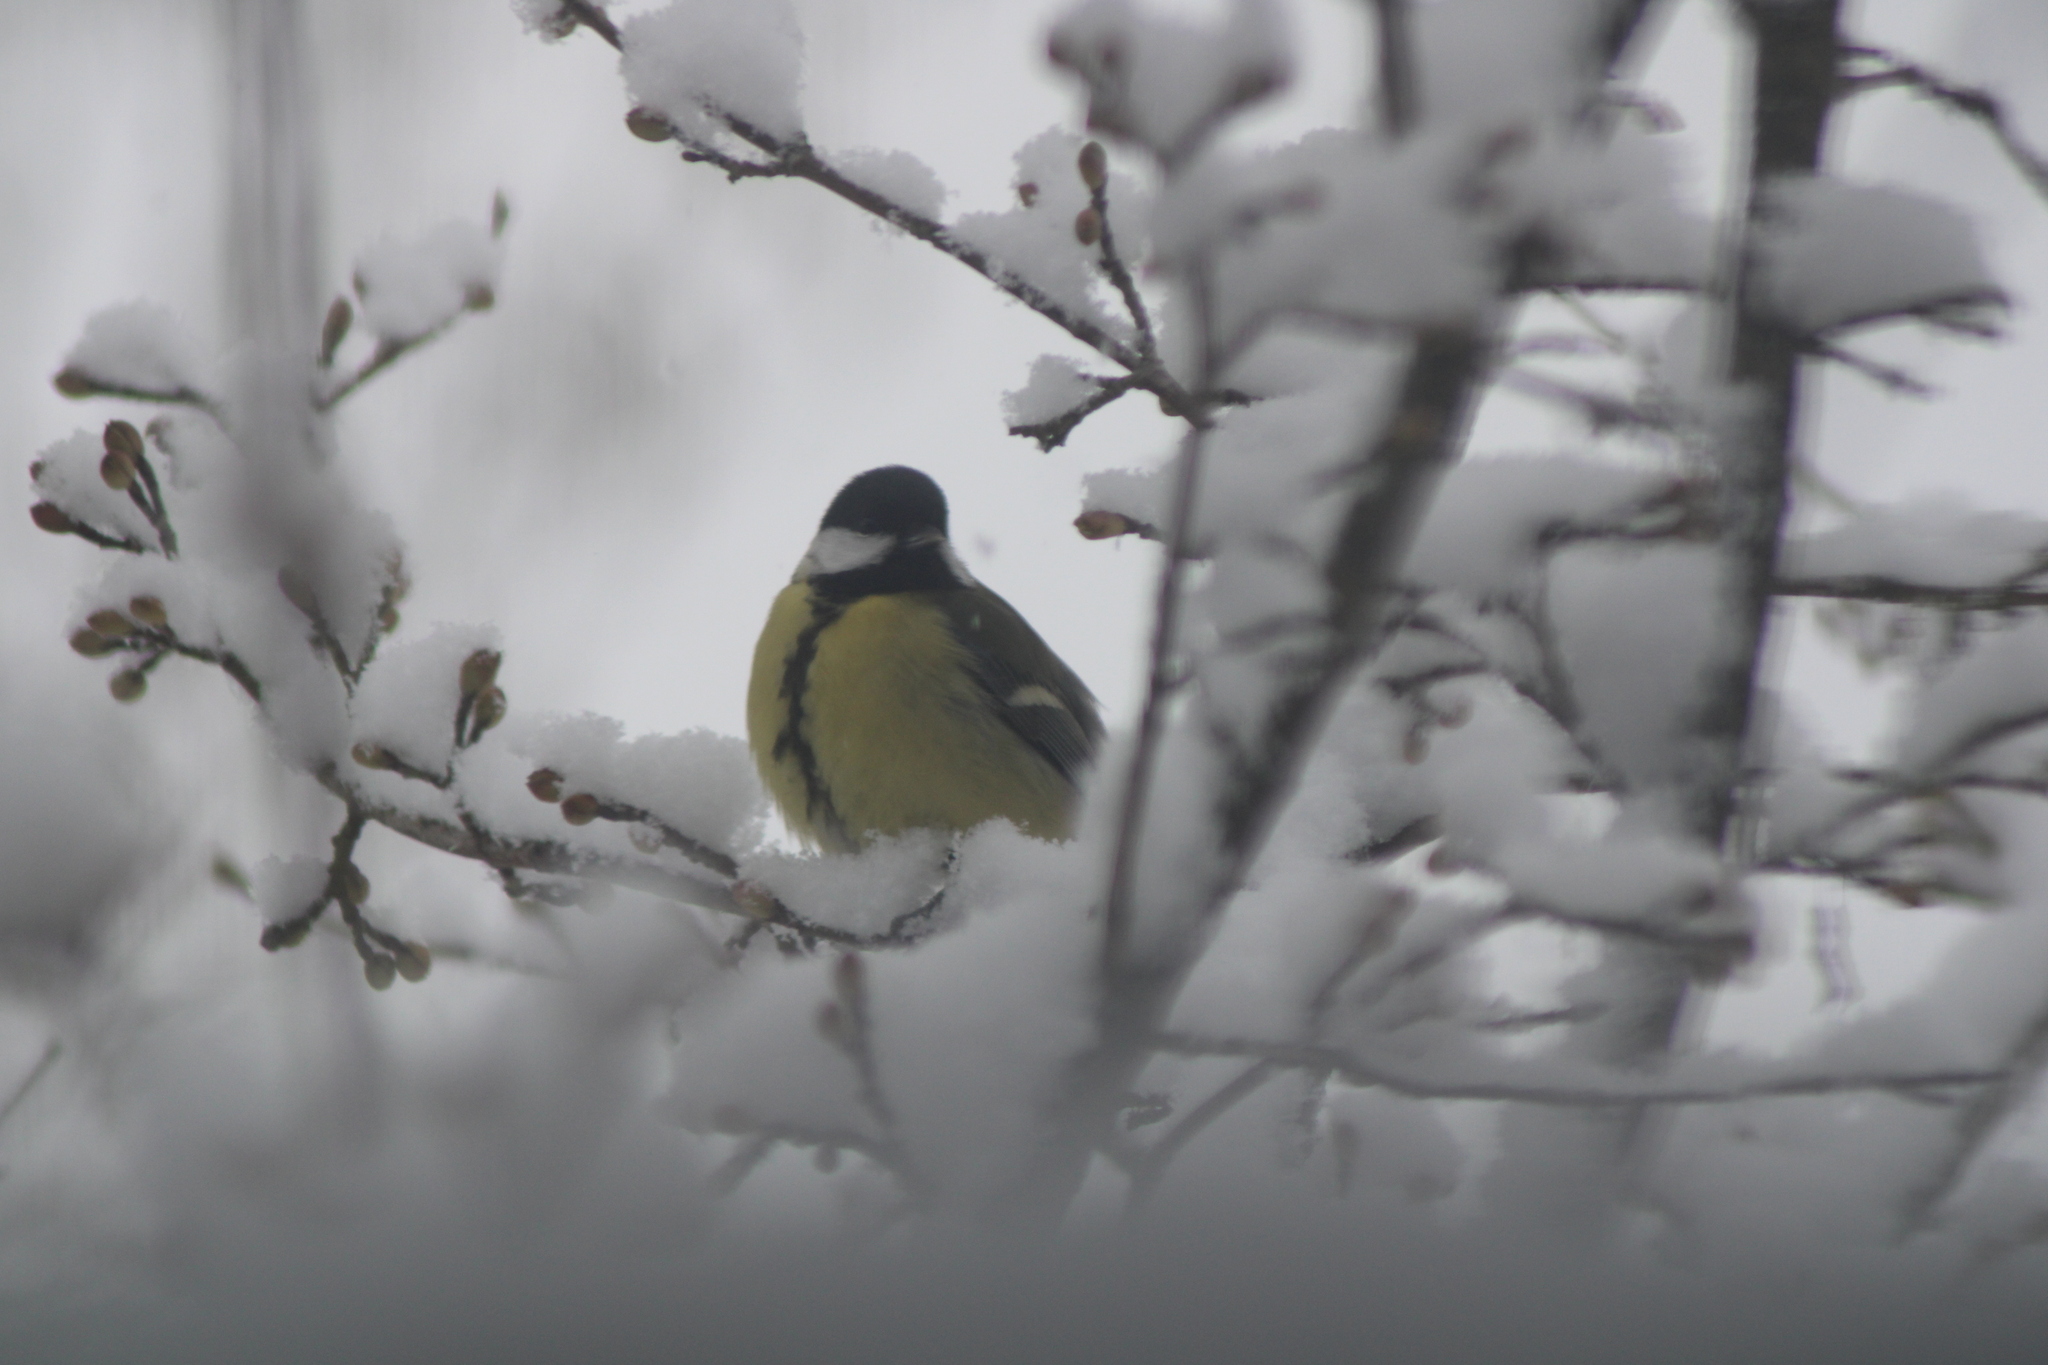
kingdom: Animalia
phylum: Chordata
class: Aves
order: Passeriformes
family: Paridae
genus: Parus
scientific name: Parus major
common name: Great tit
